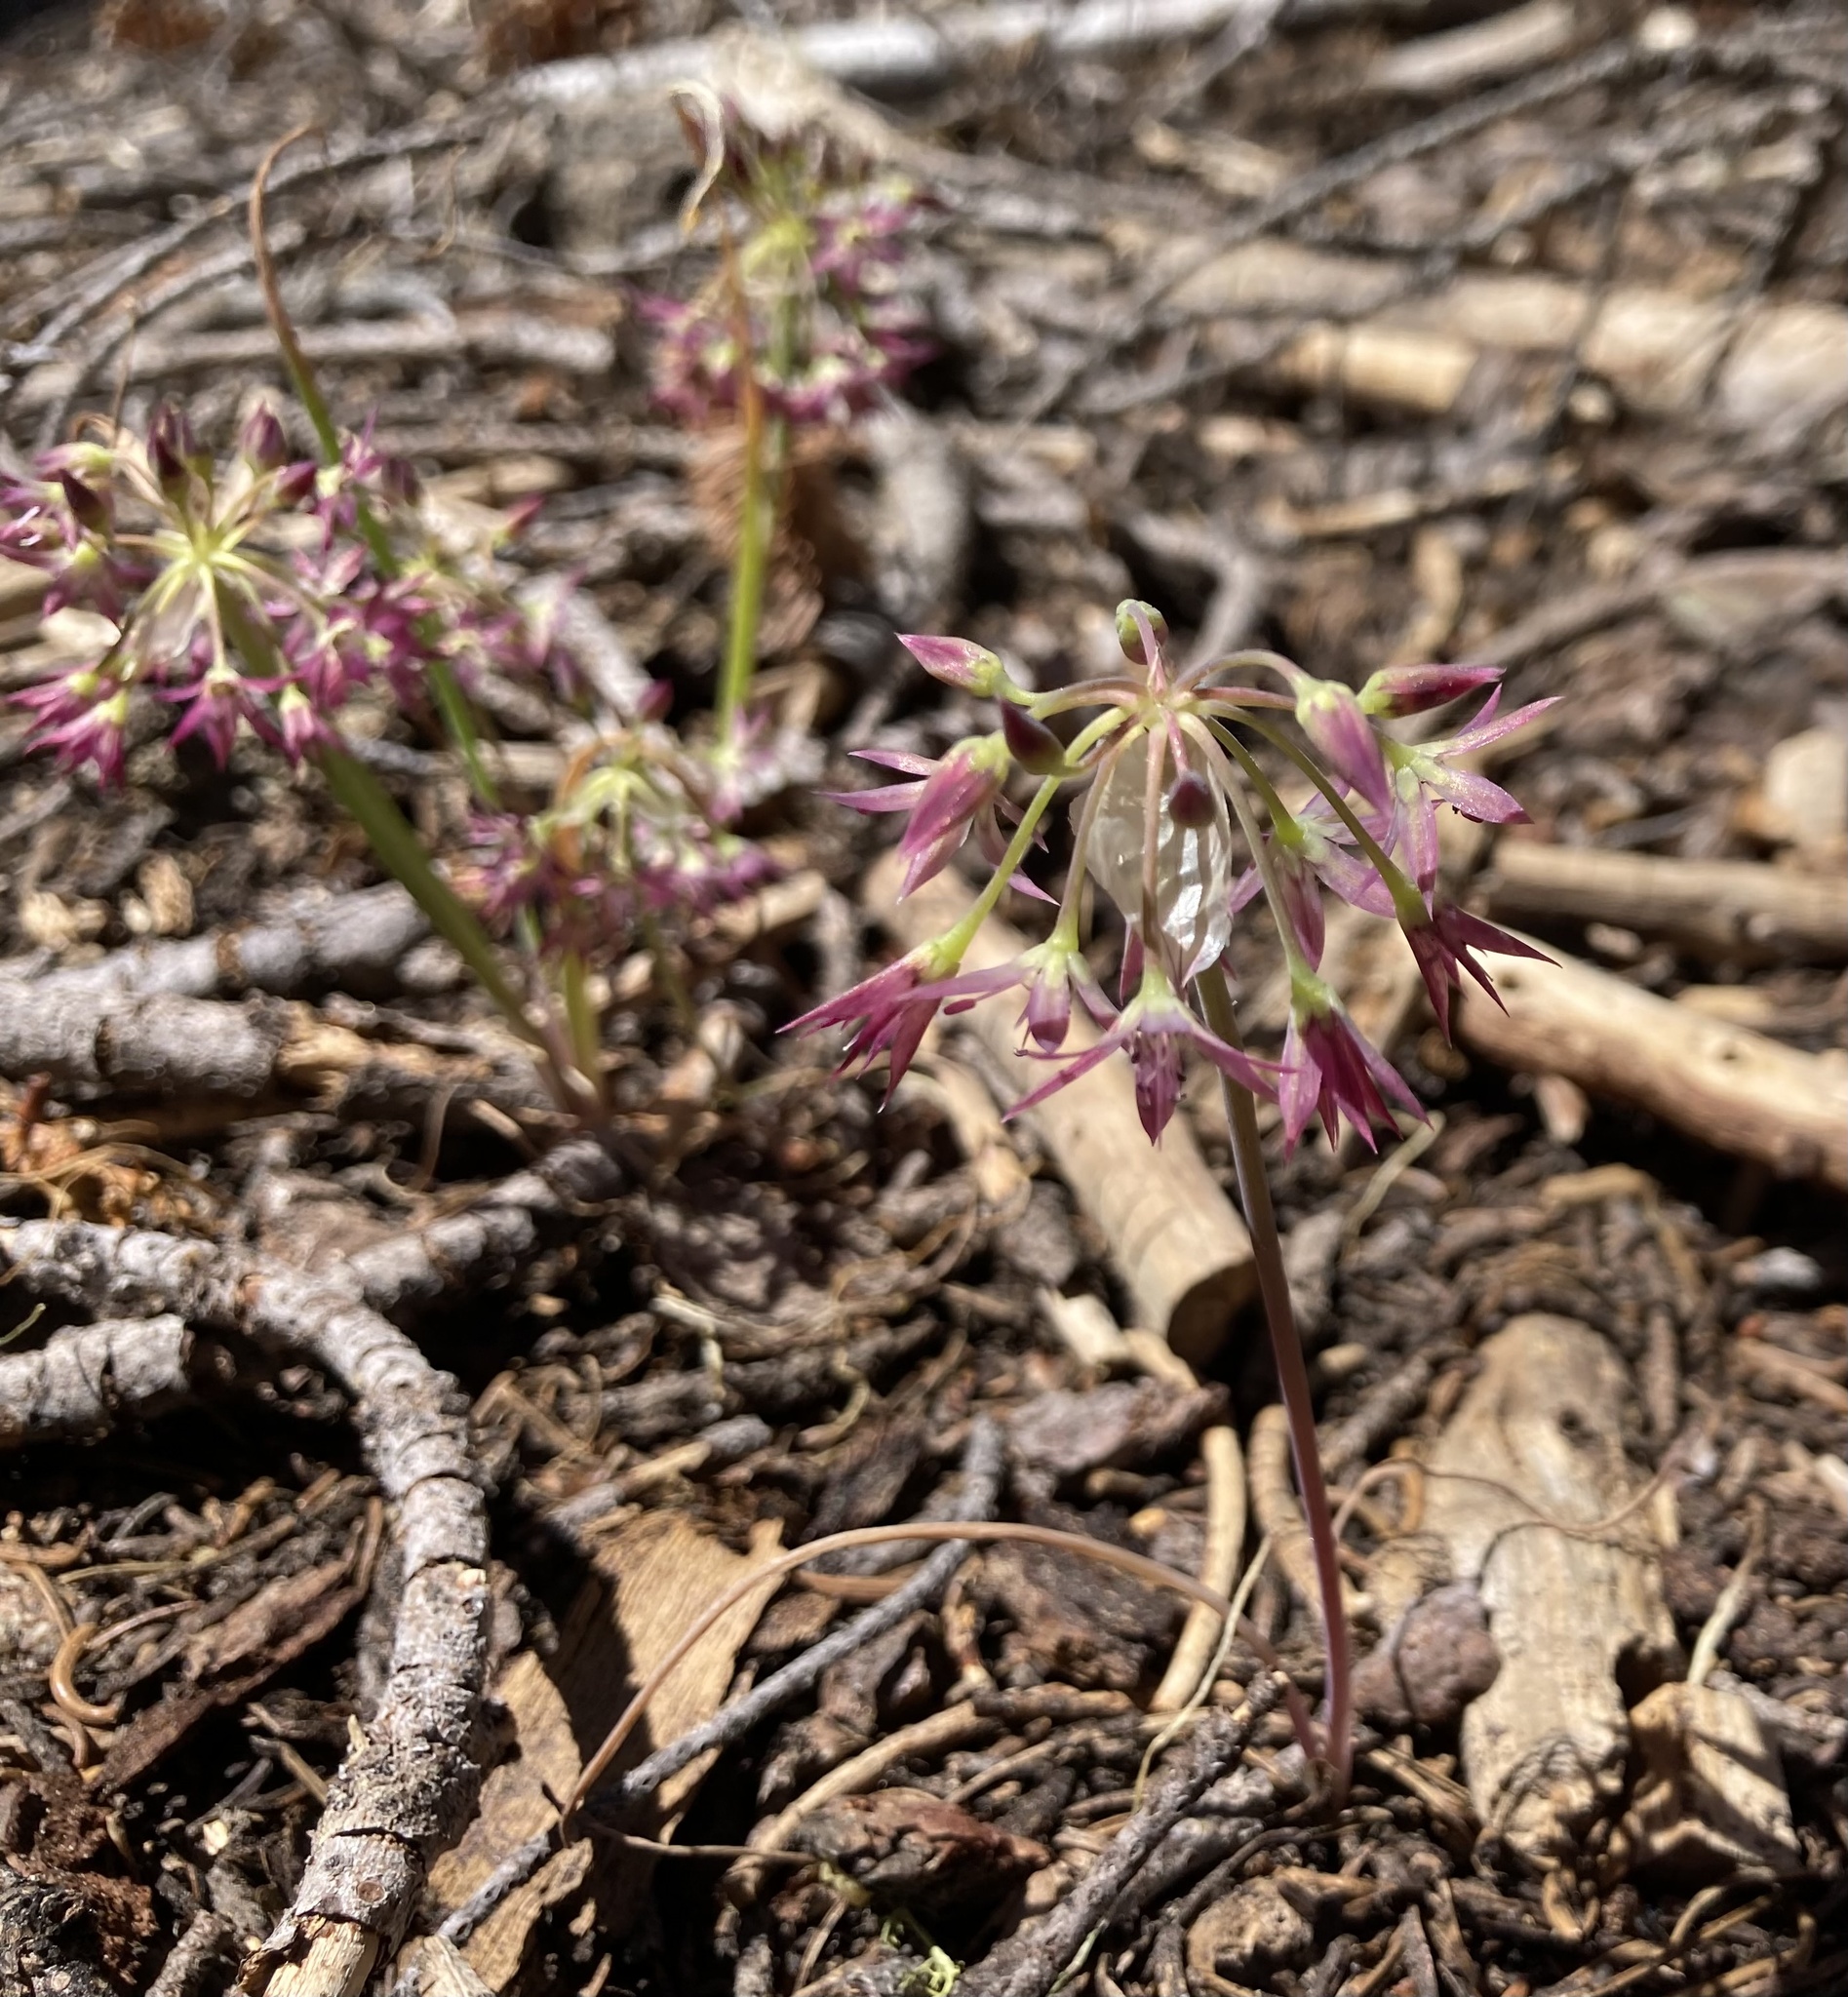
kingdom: Plantae
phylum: Tracheophyta
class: Liliopsida
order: Asparagales
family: Amaryllidaceae
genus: Allium
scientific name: Allium campanulatum
